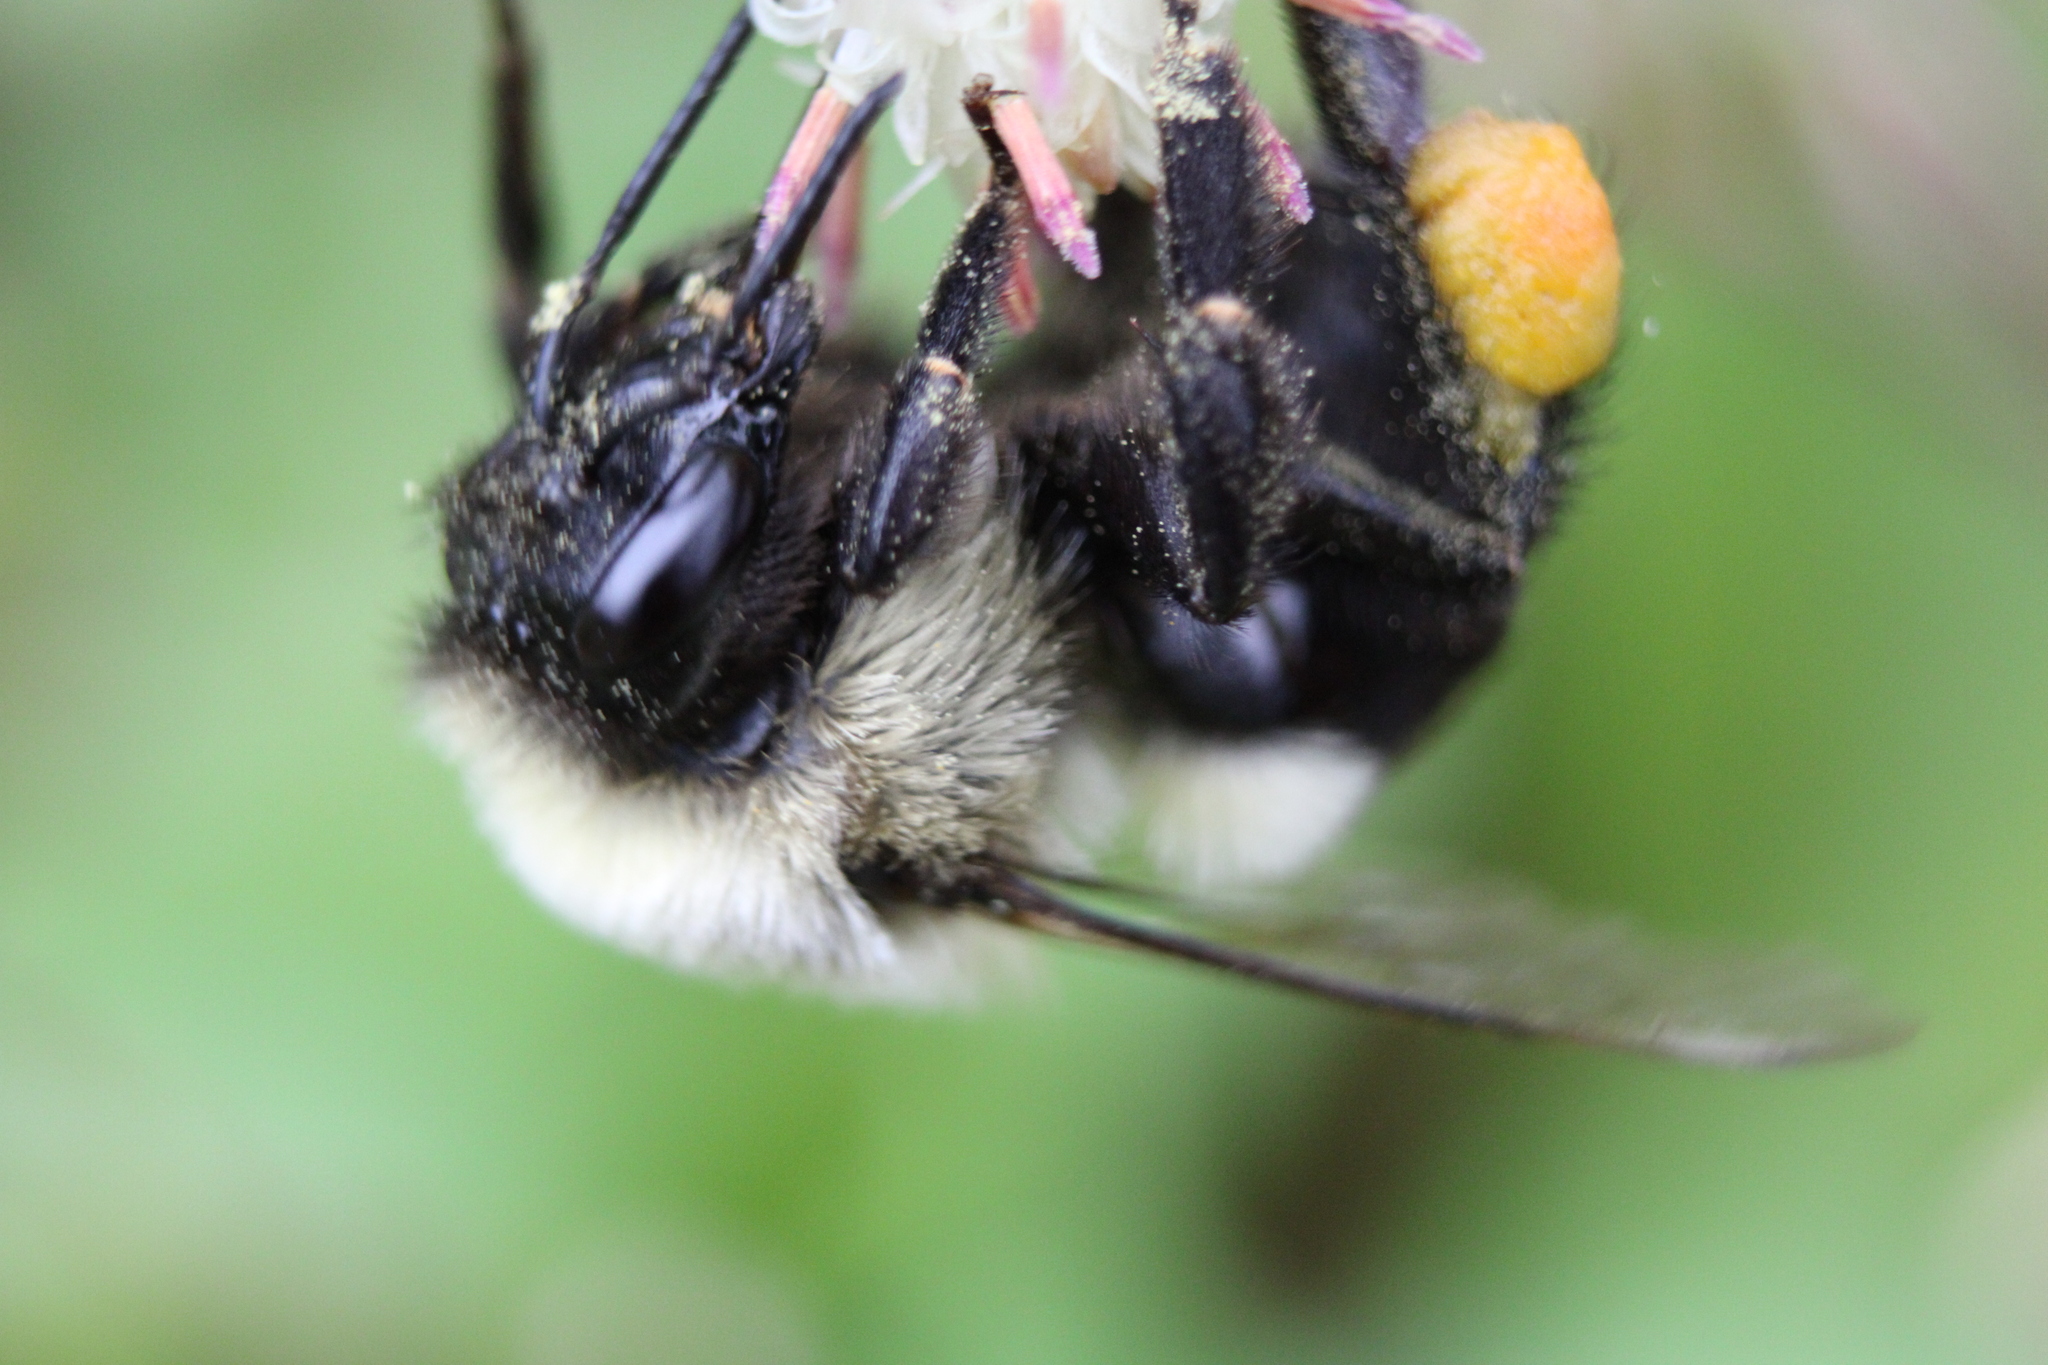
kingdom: Animalia
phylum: Arthropoda
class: Insecta
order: Hymenoptera
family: Apidae
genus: Bombus
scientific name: Bombus impatiens
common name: Common eastern bumble bee
